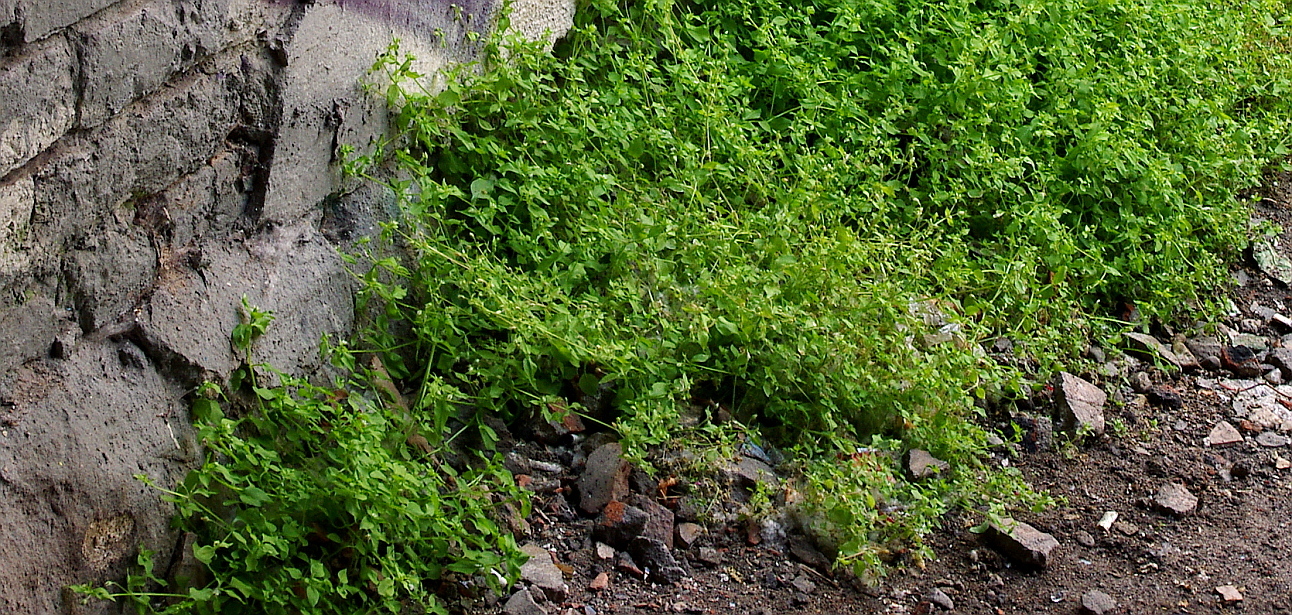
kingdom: Plantae
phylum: Tracheophyta
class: Magnoliopsida
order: Caryophyllales
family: Caryophyllaceae
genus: Stellaria
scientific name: Stellaria media
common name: Common chickweed
